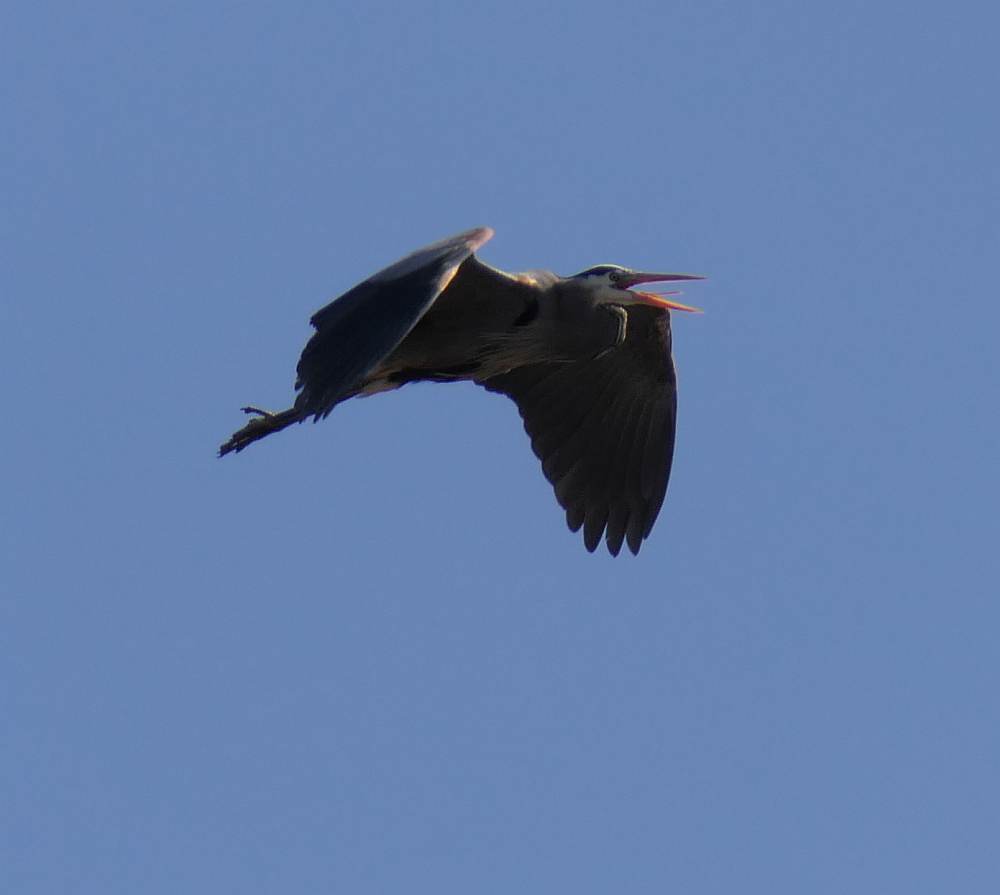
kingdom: Animalia
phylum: Chordata
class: Aves
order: Pelecaniformes
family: Ardeidae
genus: Ardea
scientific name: Ardea herodias
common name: Great blue heron
